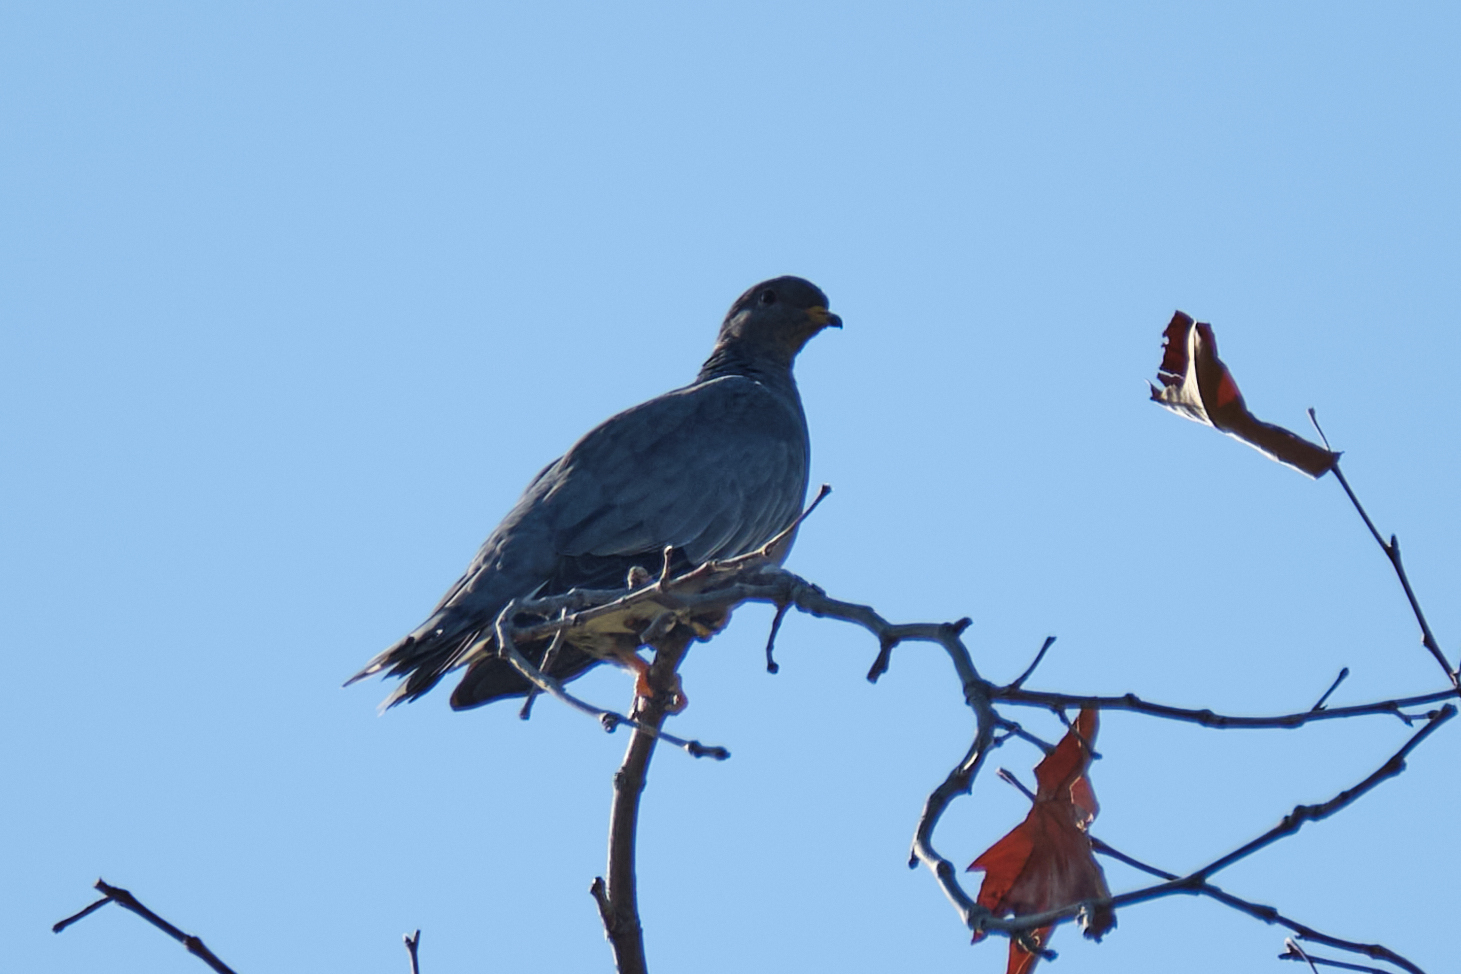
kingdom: Animalia
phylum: Chordata
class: Aves
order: Columbiformes
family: Columbidae
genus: Patagioenas
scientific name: Patagioenas fasciata
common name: Band-tailed pigeon
